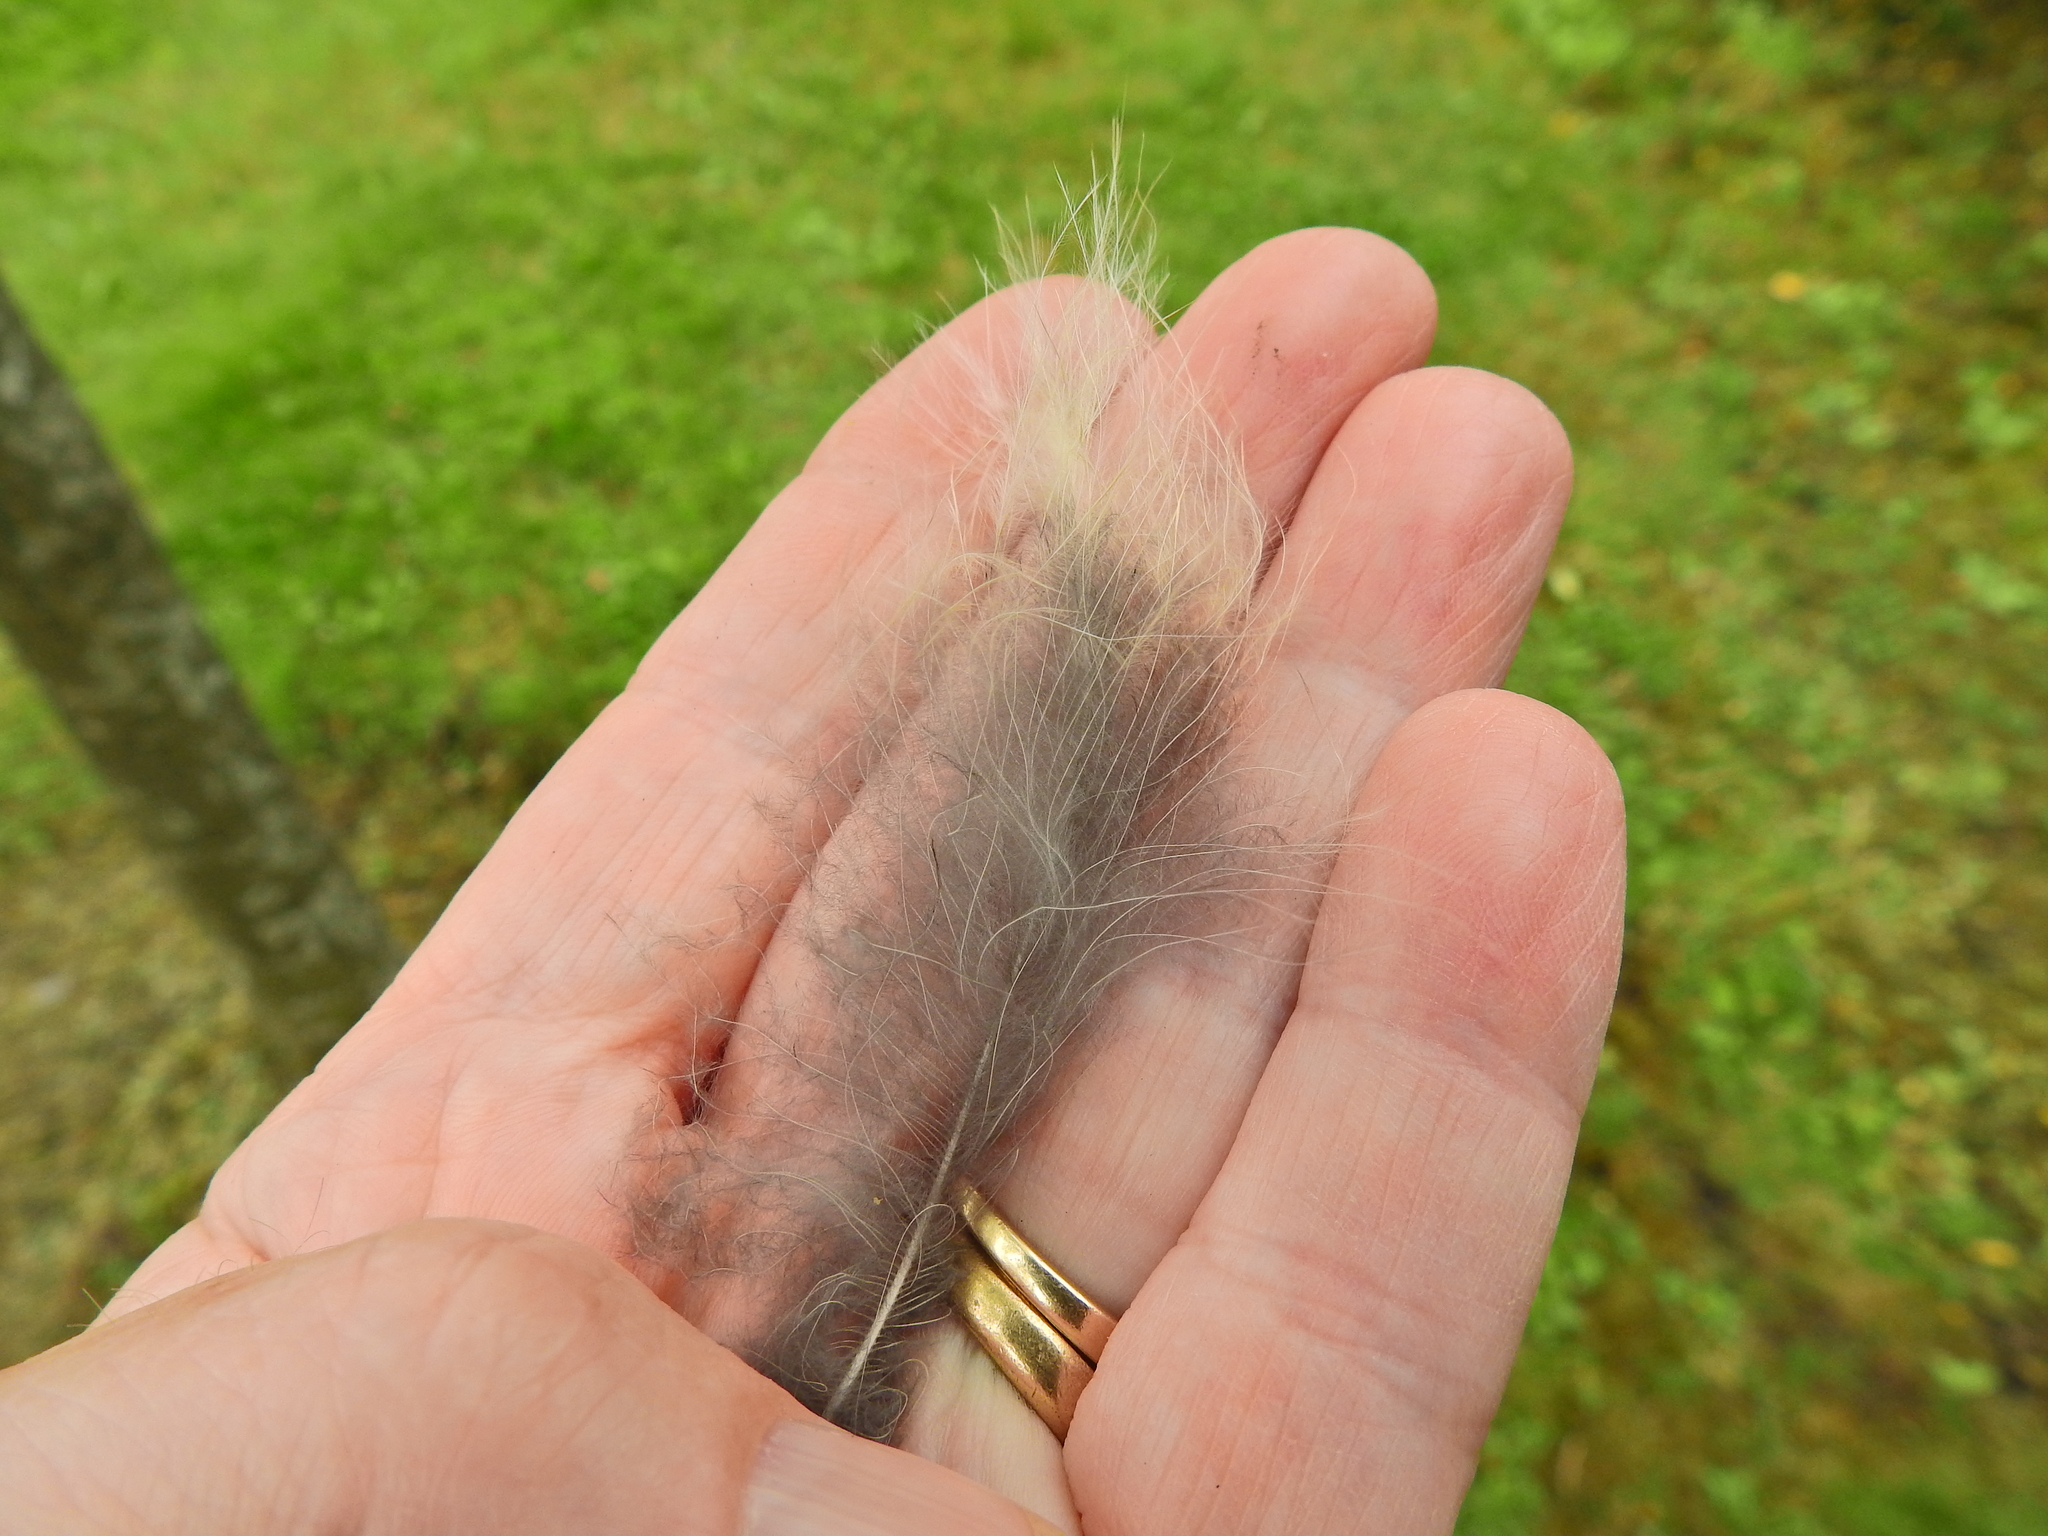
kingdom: Animalia
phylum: Chordata
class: Aves
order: Strigiformes
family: Strigidae
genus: Strix
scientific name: Strix aluco
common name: Tawny owl
